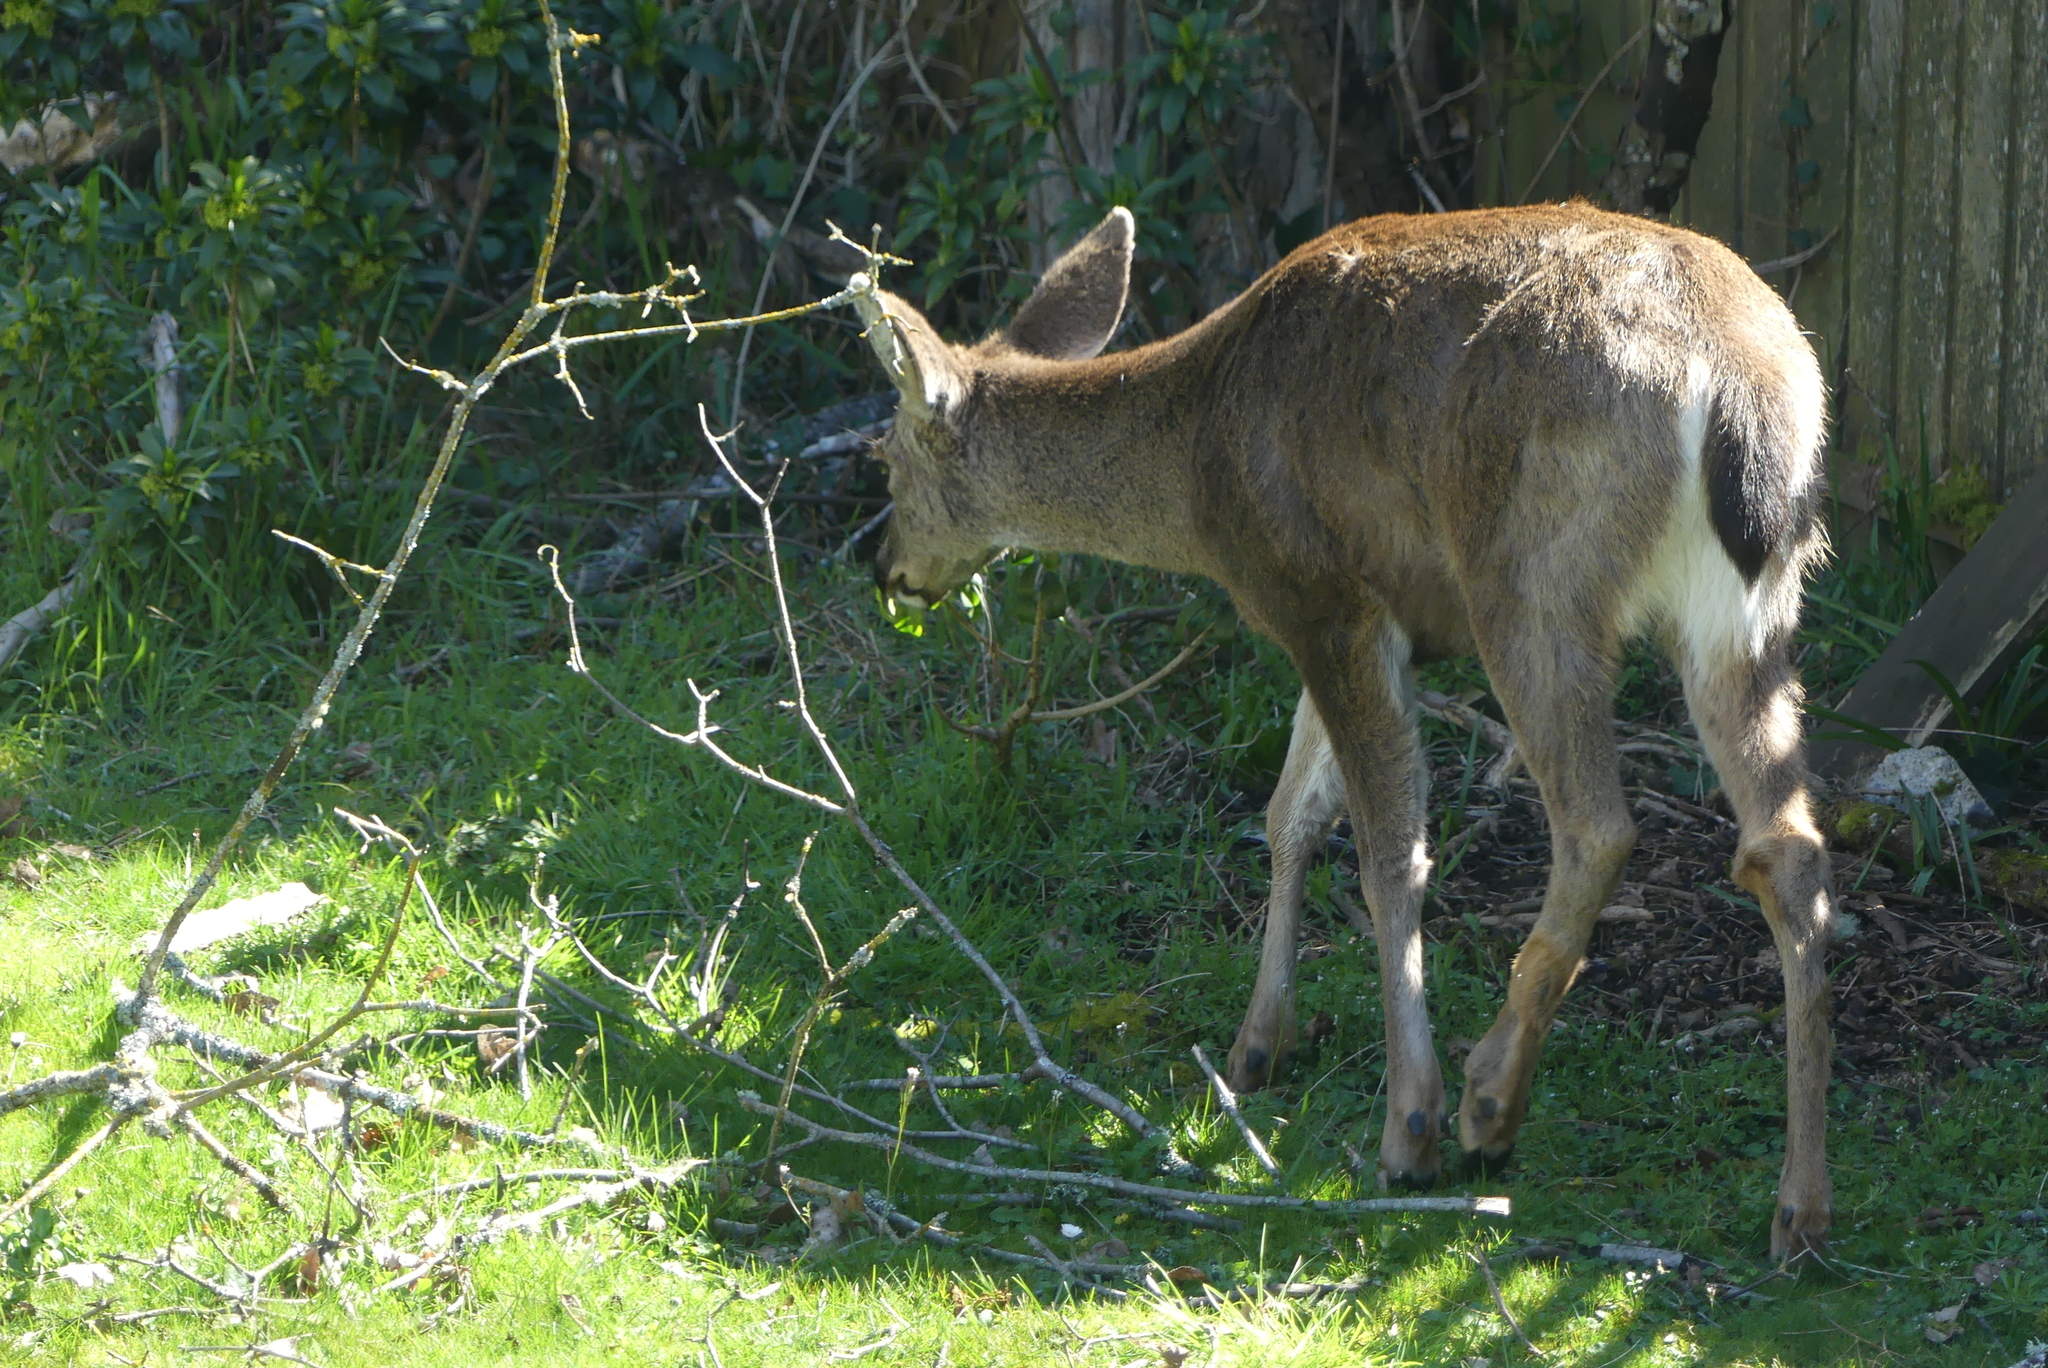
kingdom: Animalia
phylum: Chordata
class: Mammalia
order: Artiodactyla
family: Cervidae
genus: Odocoileus
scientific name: Odocoileus hemionus
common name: Mule deer
